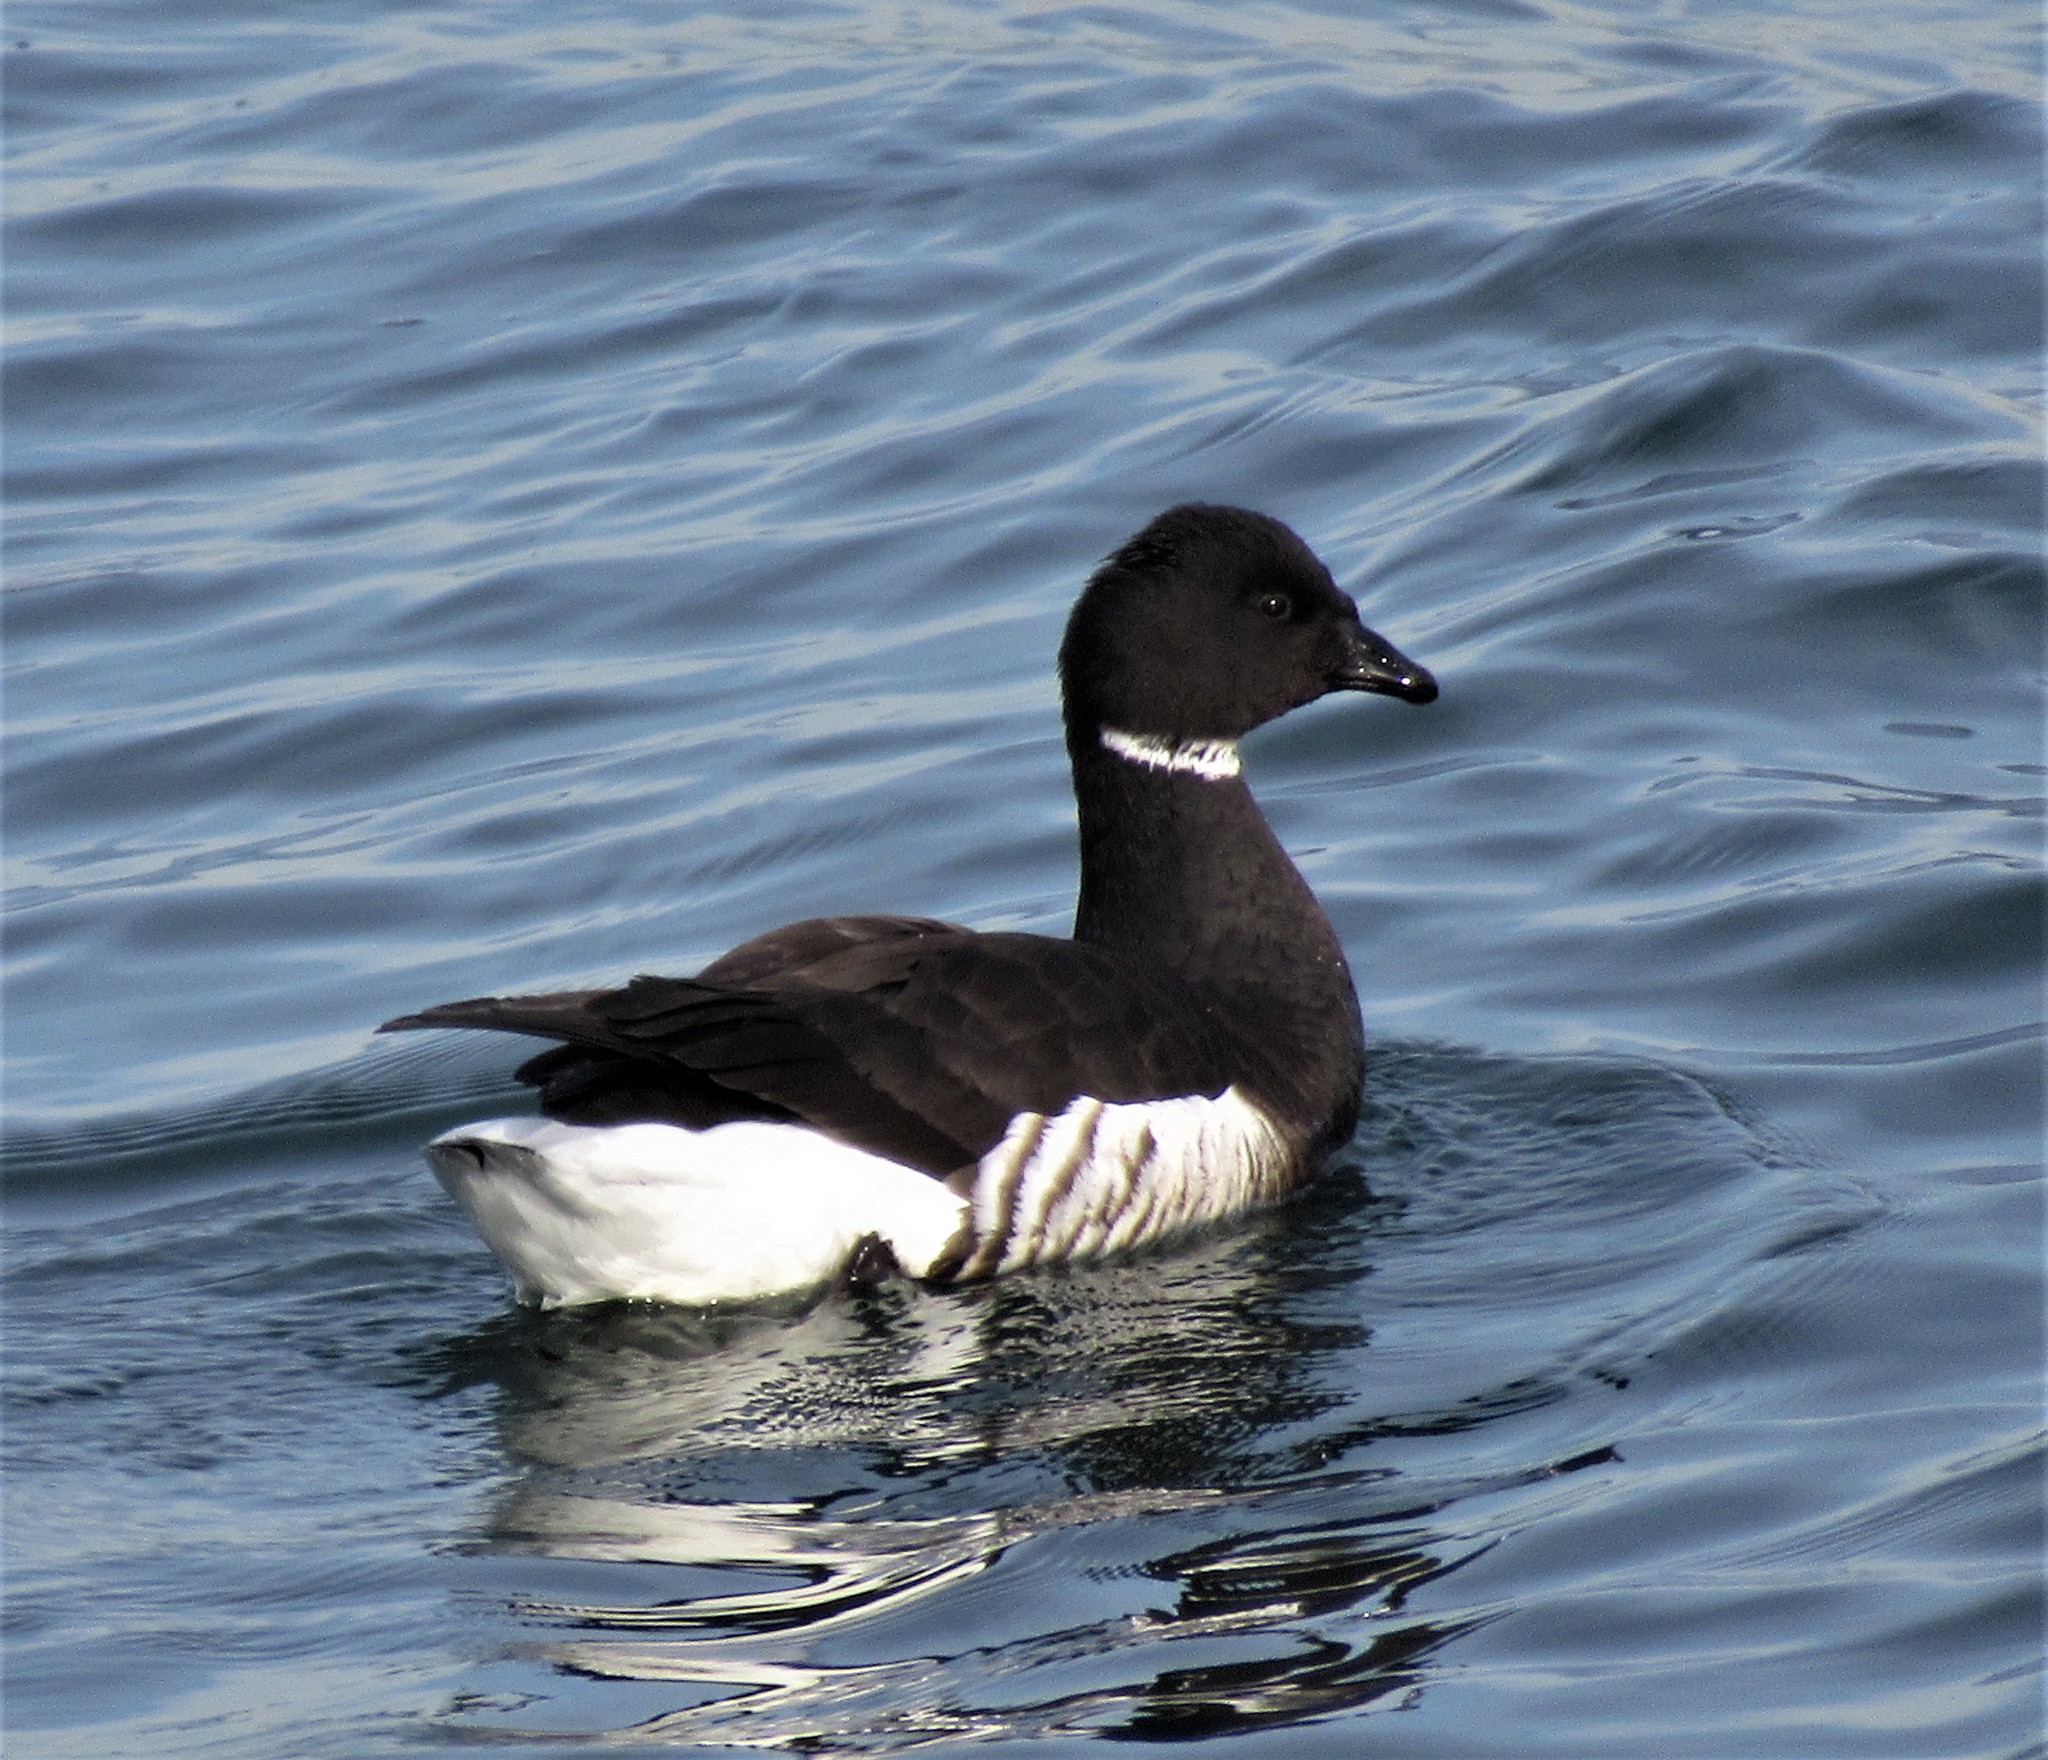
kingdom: Animalia
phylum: Chordata
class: Aves
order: Anseriformes
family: Anatidae
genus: Branta
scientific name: Branta bernicla
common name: Brant goose
